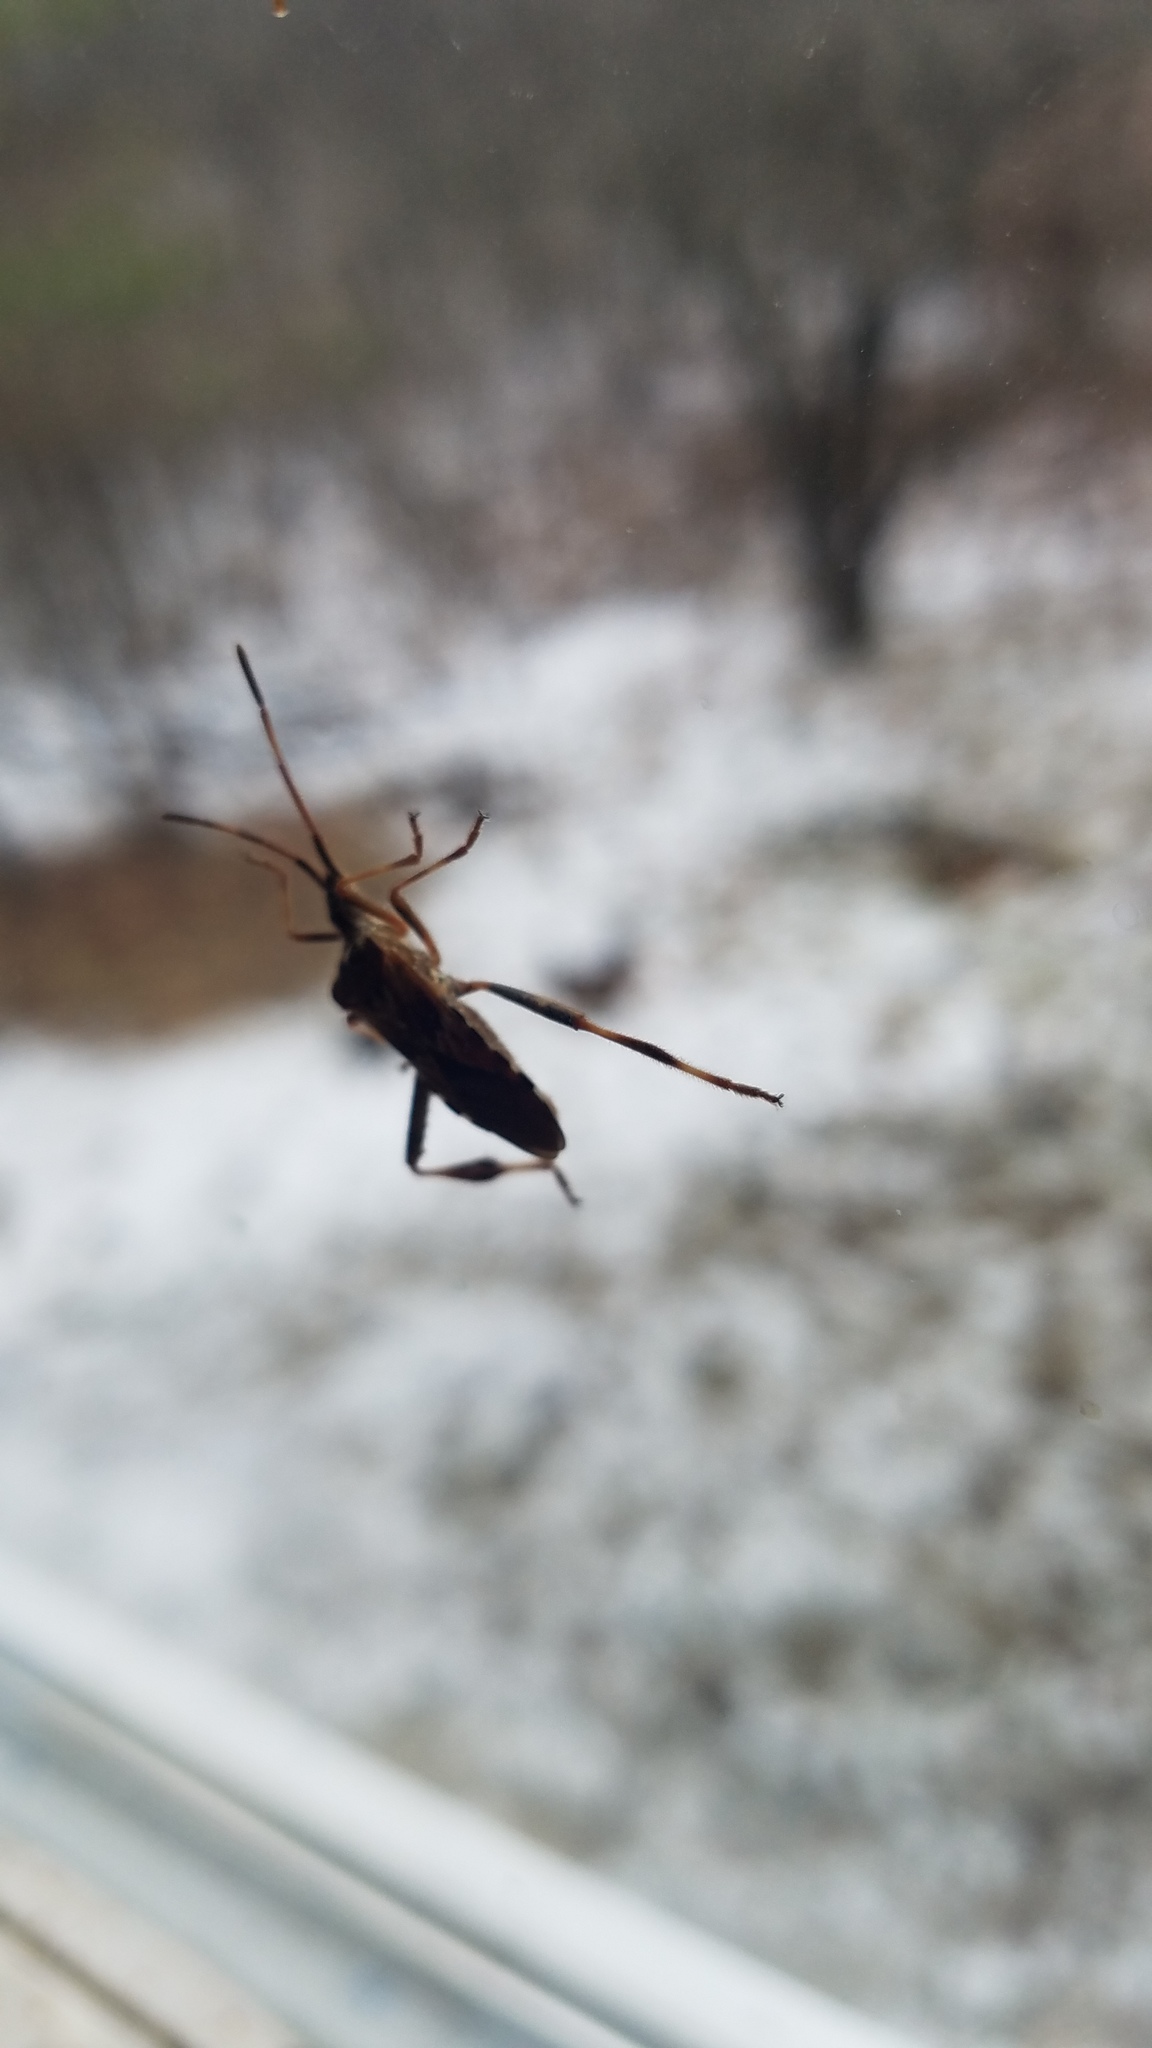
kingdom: Animalia
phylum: Arthropoda
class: Insecta
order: Hemiptera
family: Coreidae
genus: Leptoglossus
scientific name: Leptoglossus occidentalis
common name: Western conifer-seed bug
